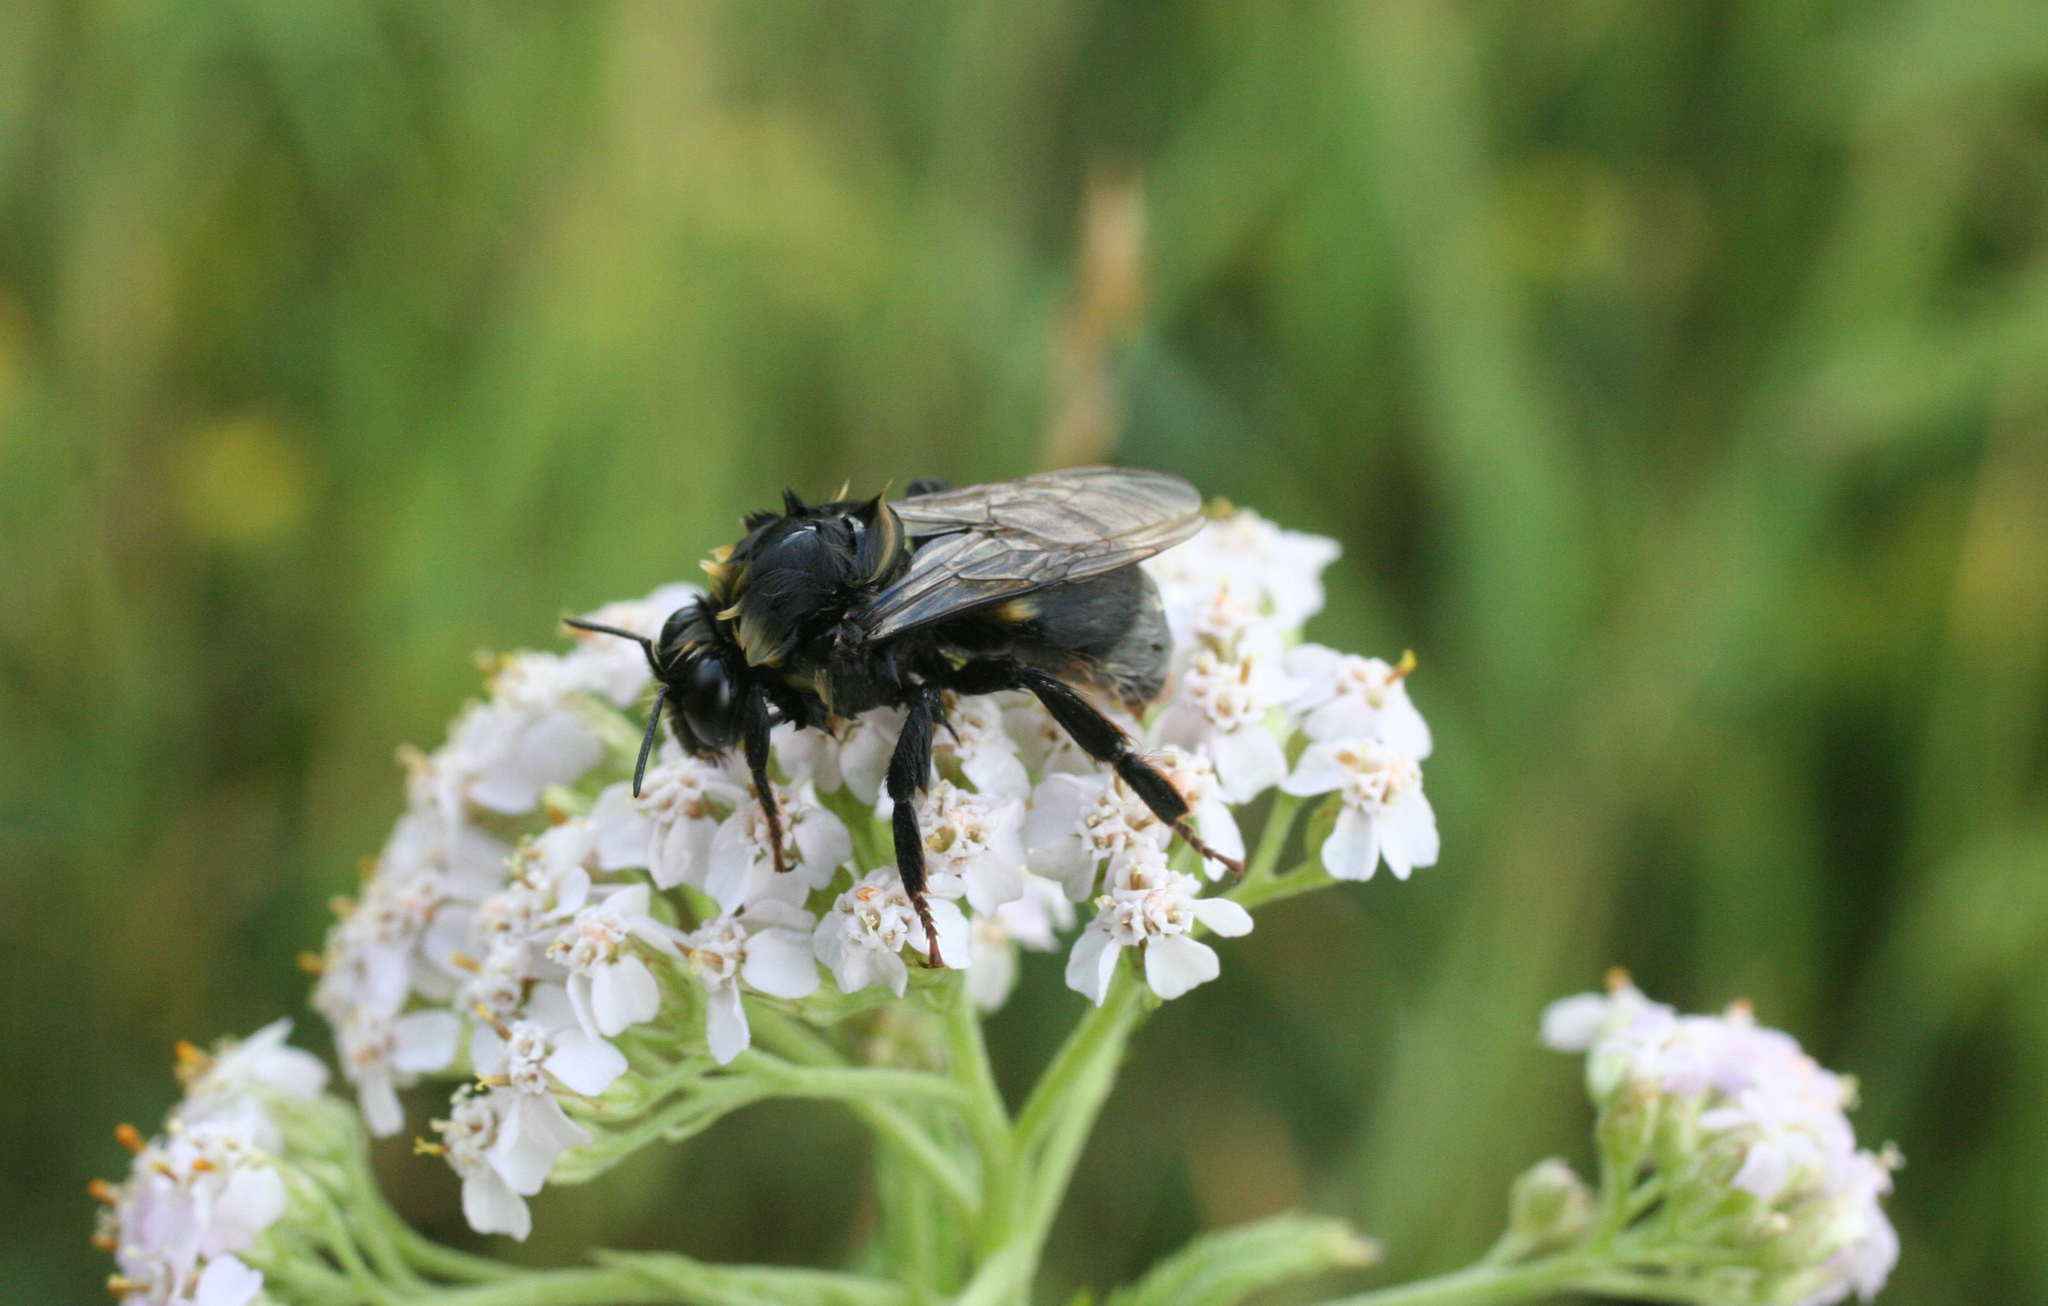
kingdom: Animalia
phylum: Arthropoda
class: Insecta
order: Hymenoptera
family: Apidae
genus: Bombus
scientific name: Bombus confusus
